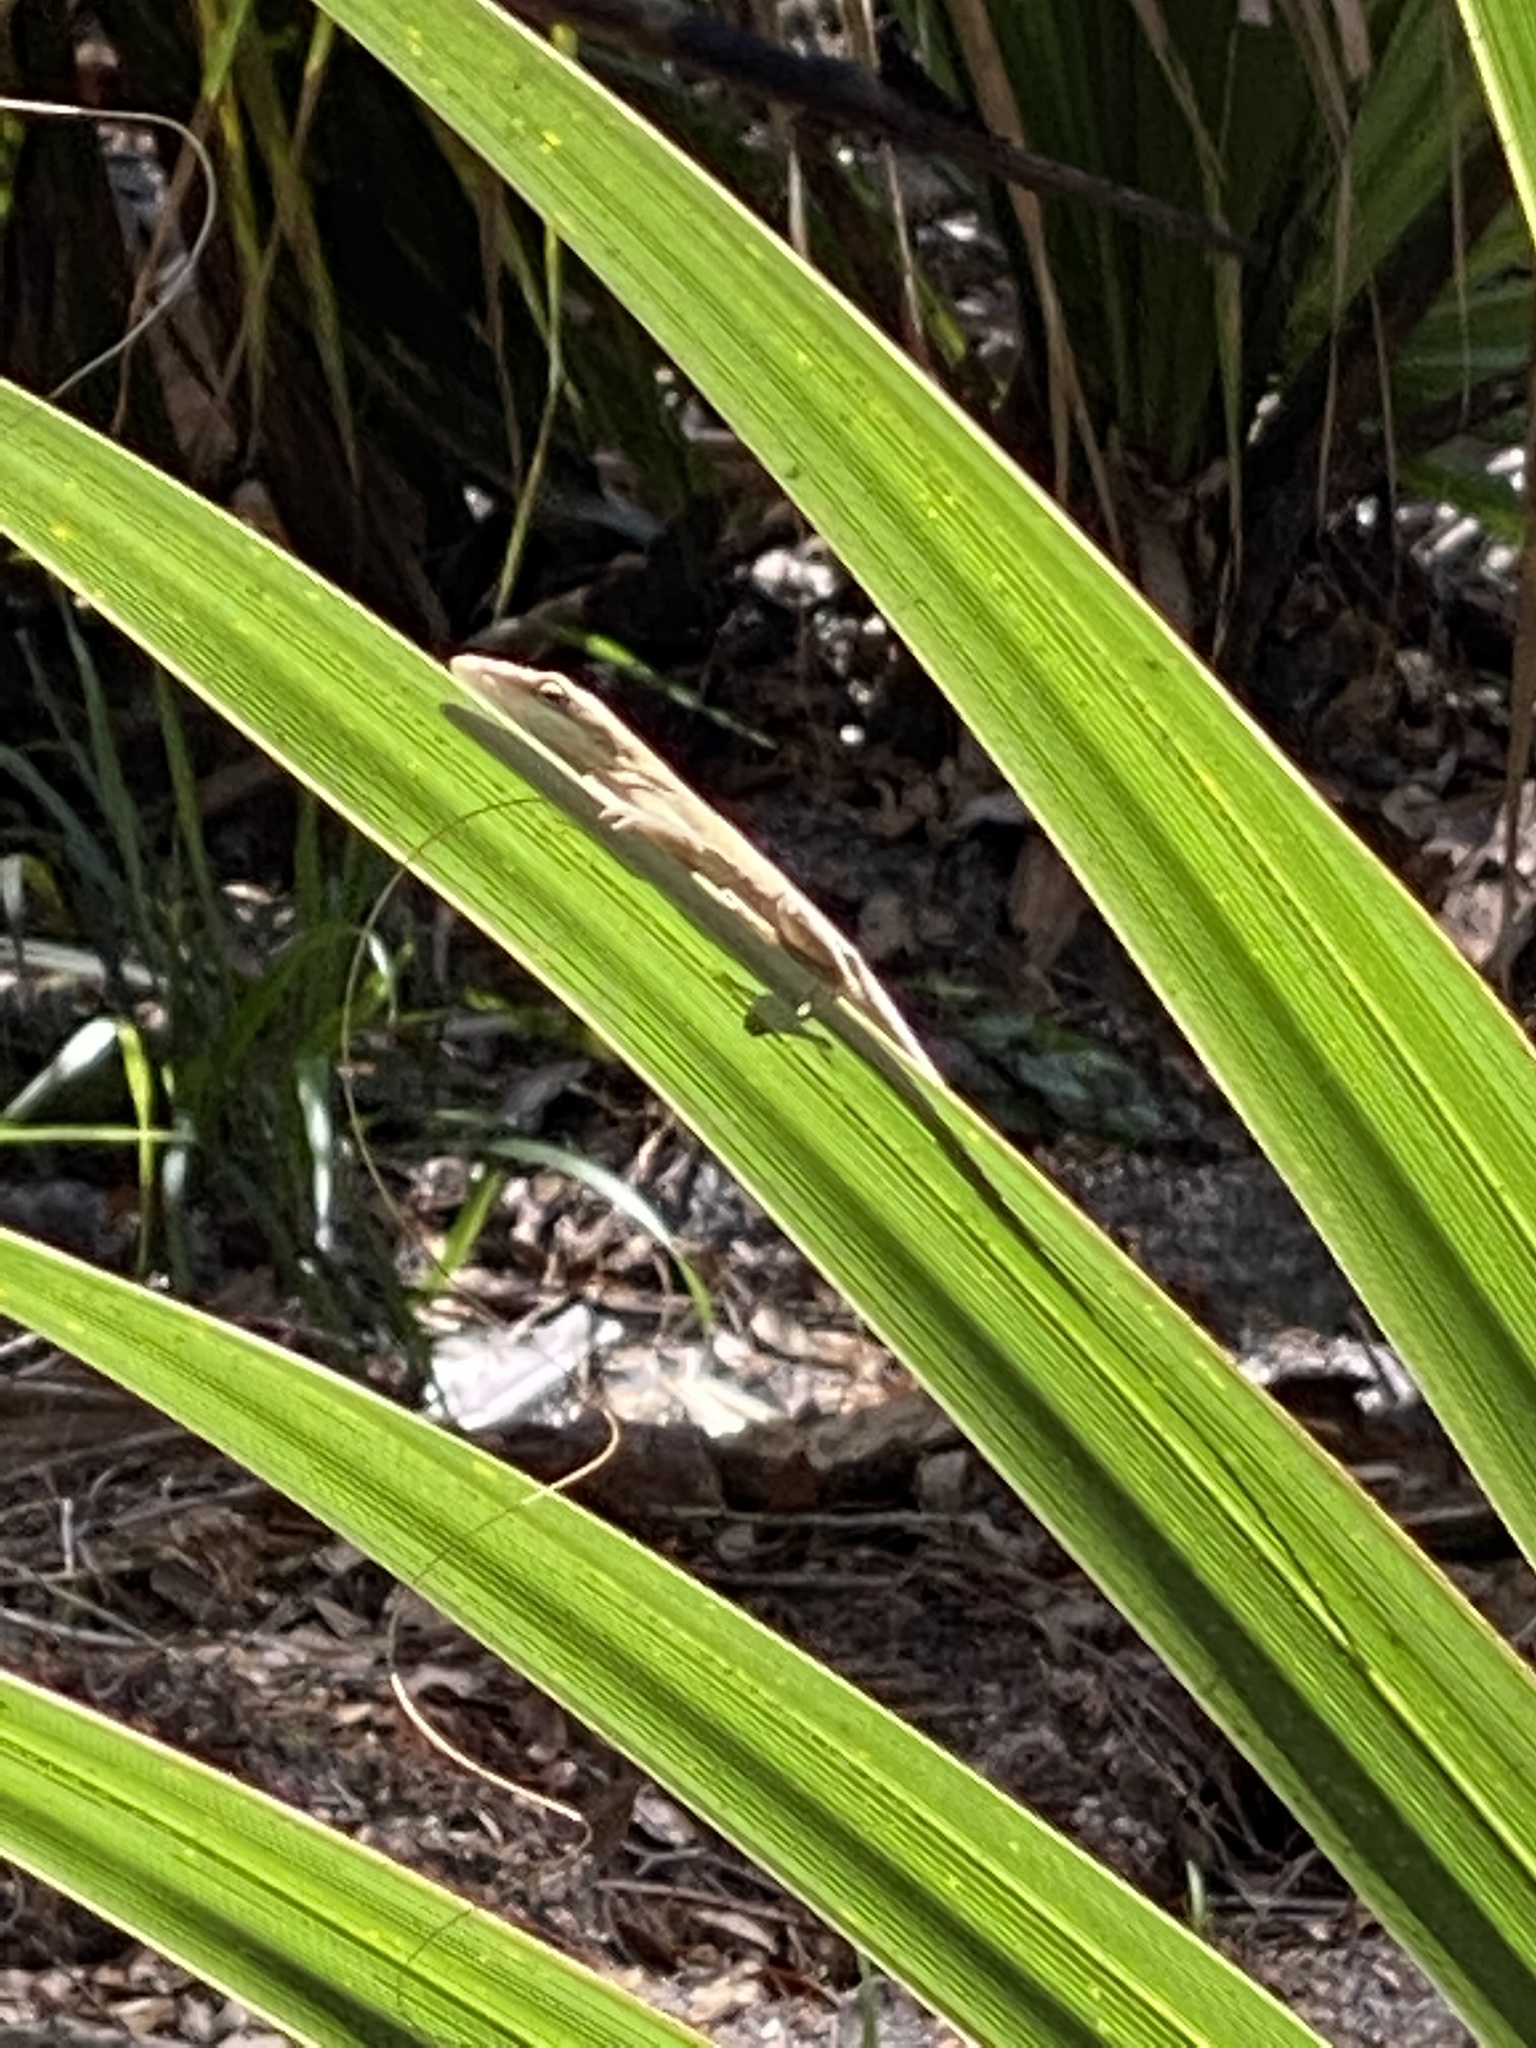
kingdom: Animalia
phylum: Chordata
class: Squamata
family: Dactyloidae
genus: Anolis
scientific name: Anolis carolinensis
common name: Green anole
